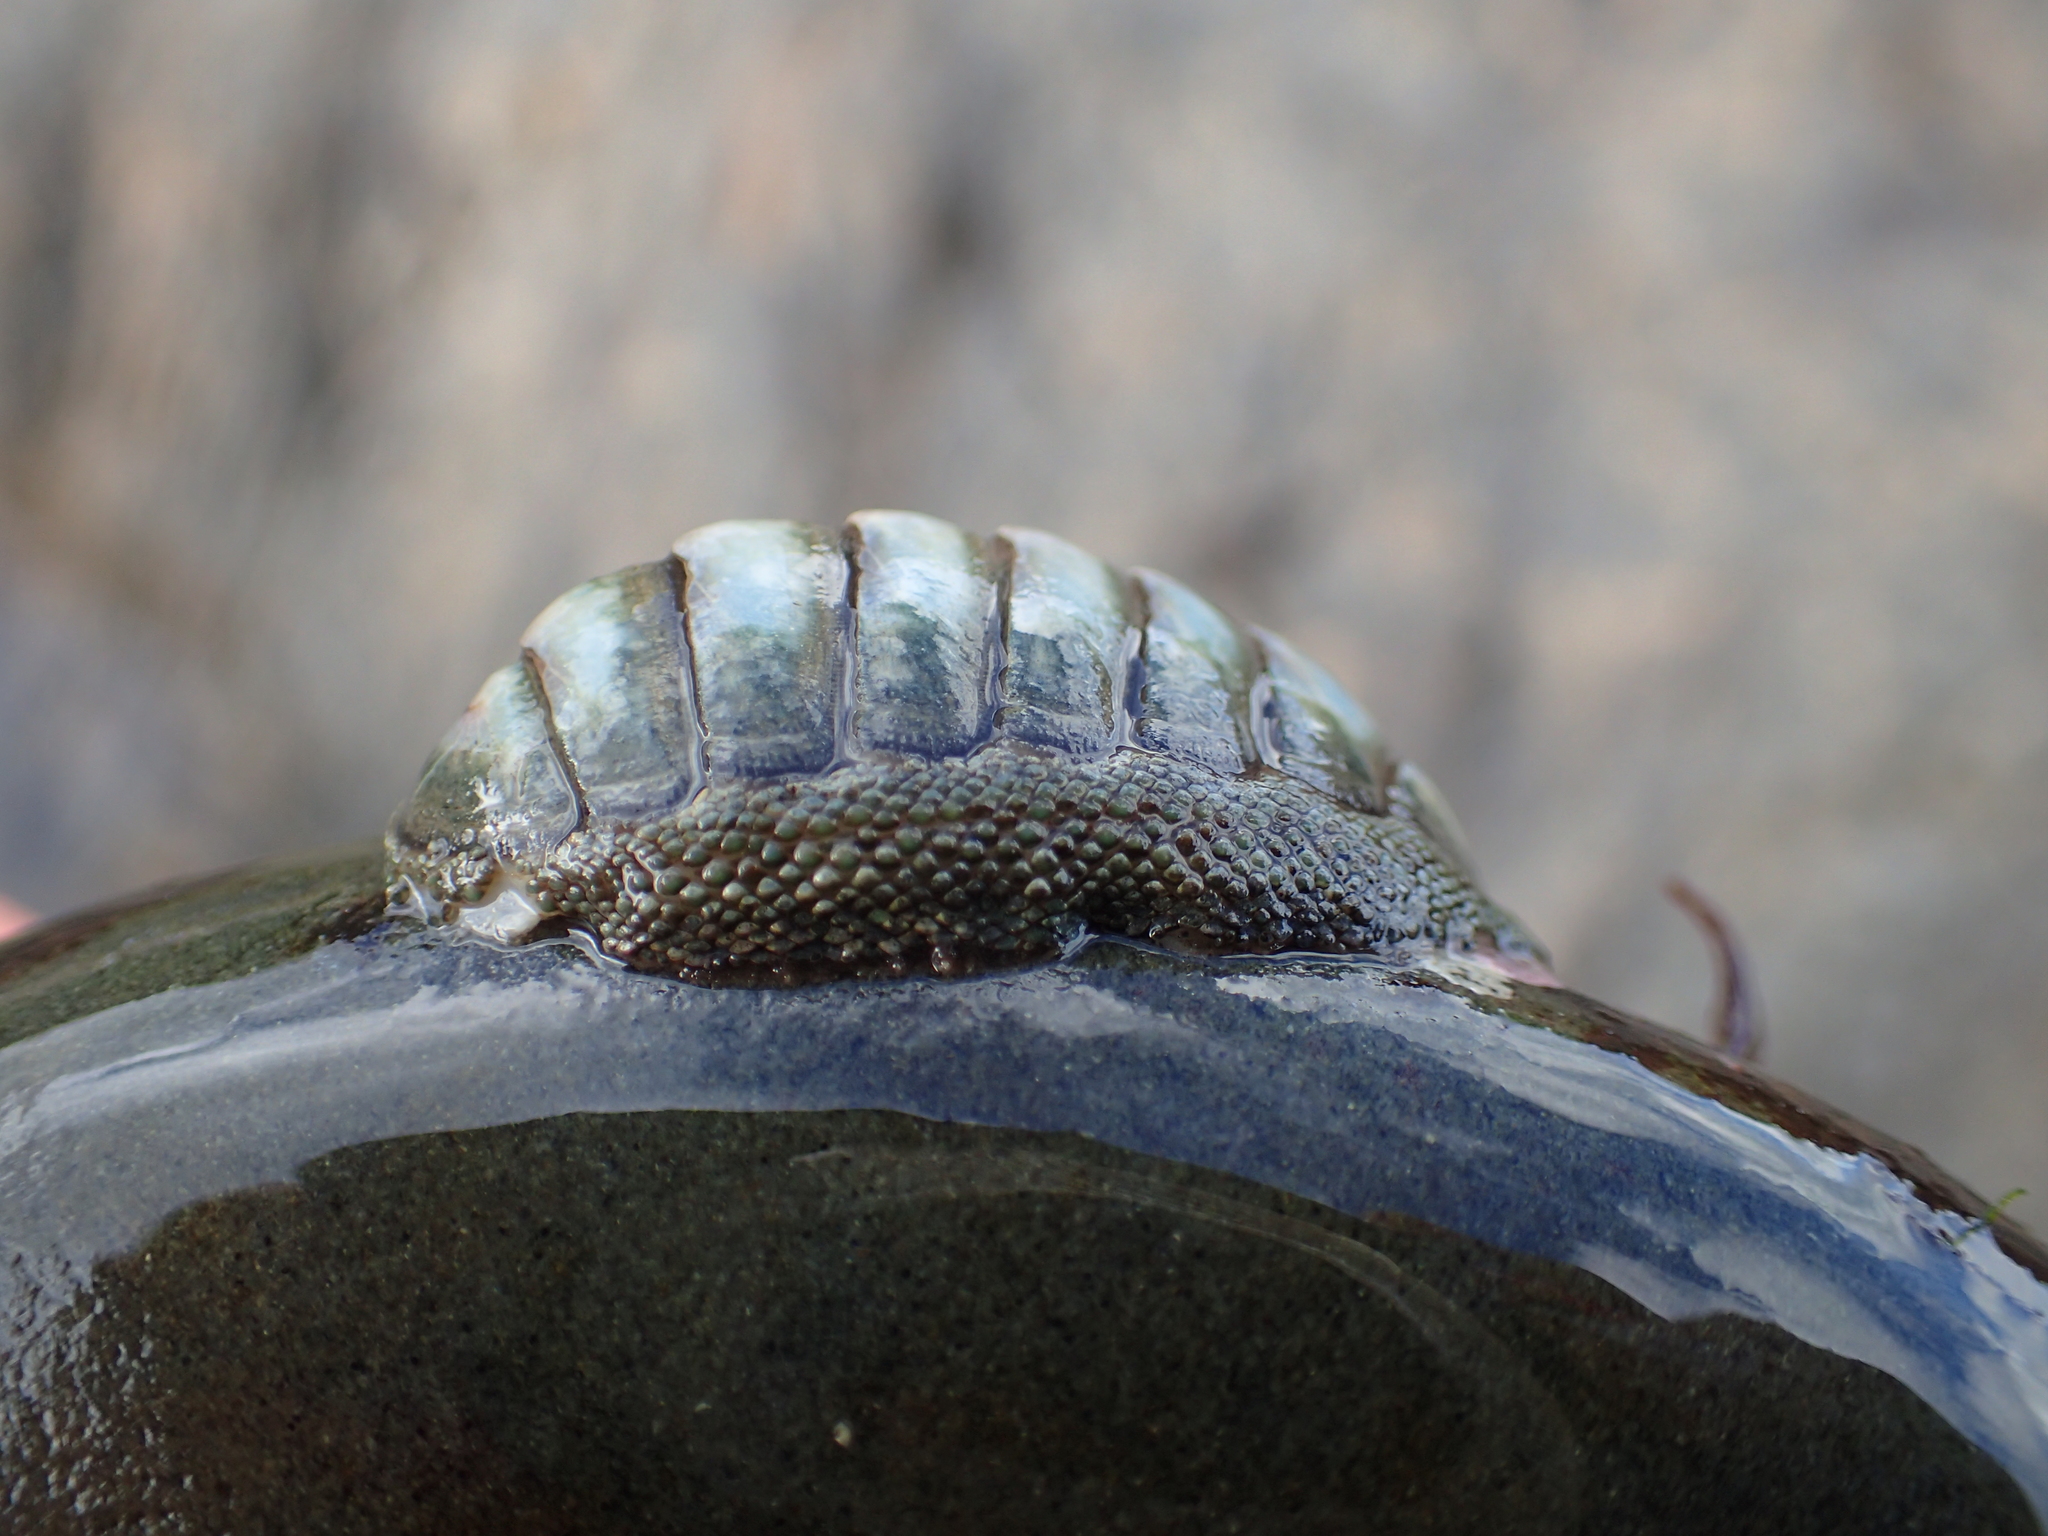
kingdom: Animalia
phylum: Mollusca
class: Polyplacophora
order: Chitonida
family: Chitonidae
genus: Chiton
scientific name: Chiton glaucus
